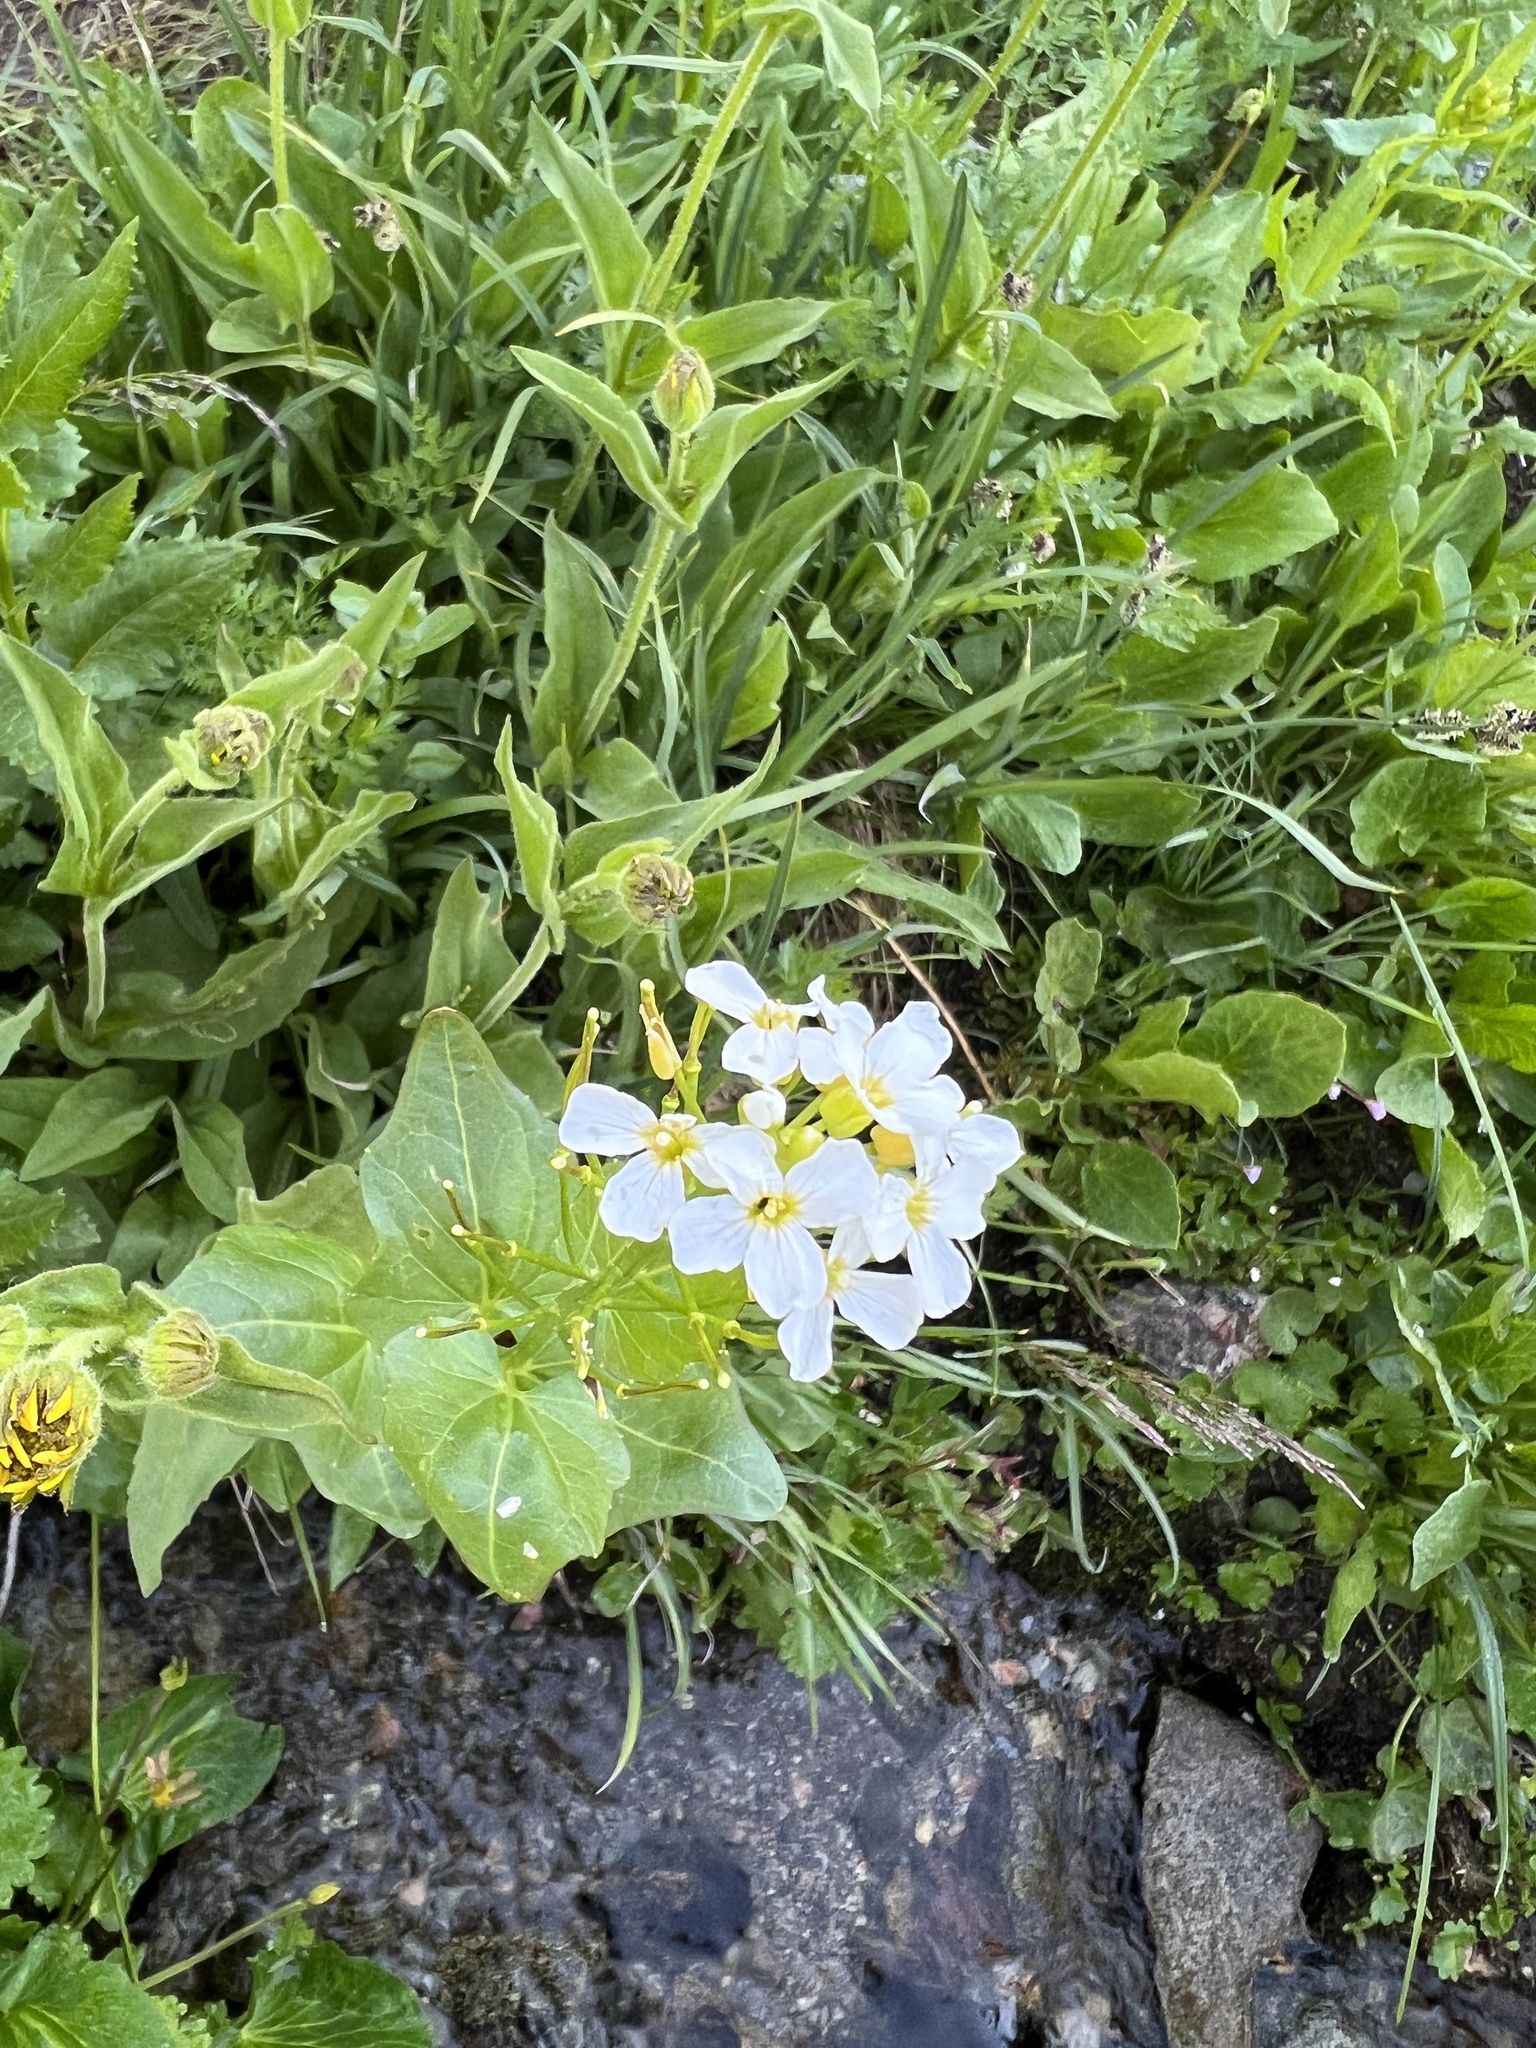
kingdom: Plantae
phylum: Tracheophyta
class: Magnoliopsida
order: Brassicales
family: Brassicaceae
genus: Cardamine
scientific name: Cardamine cordifolia
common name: Heart-leaf bittercress
